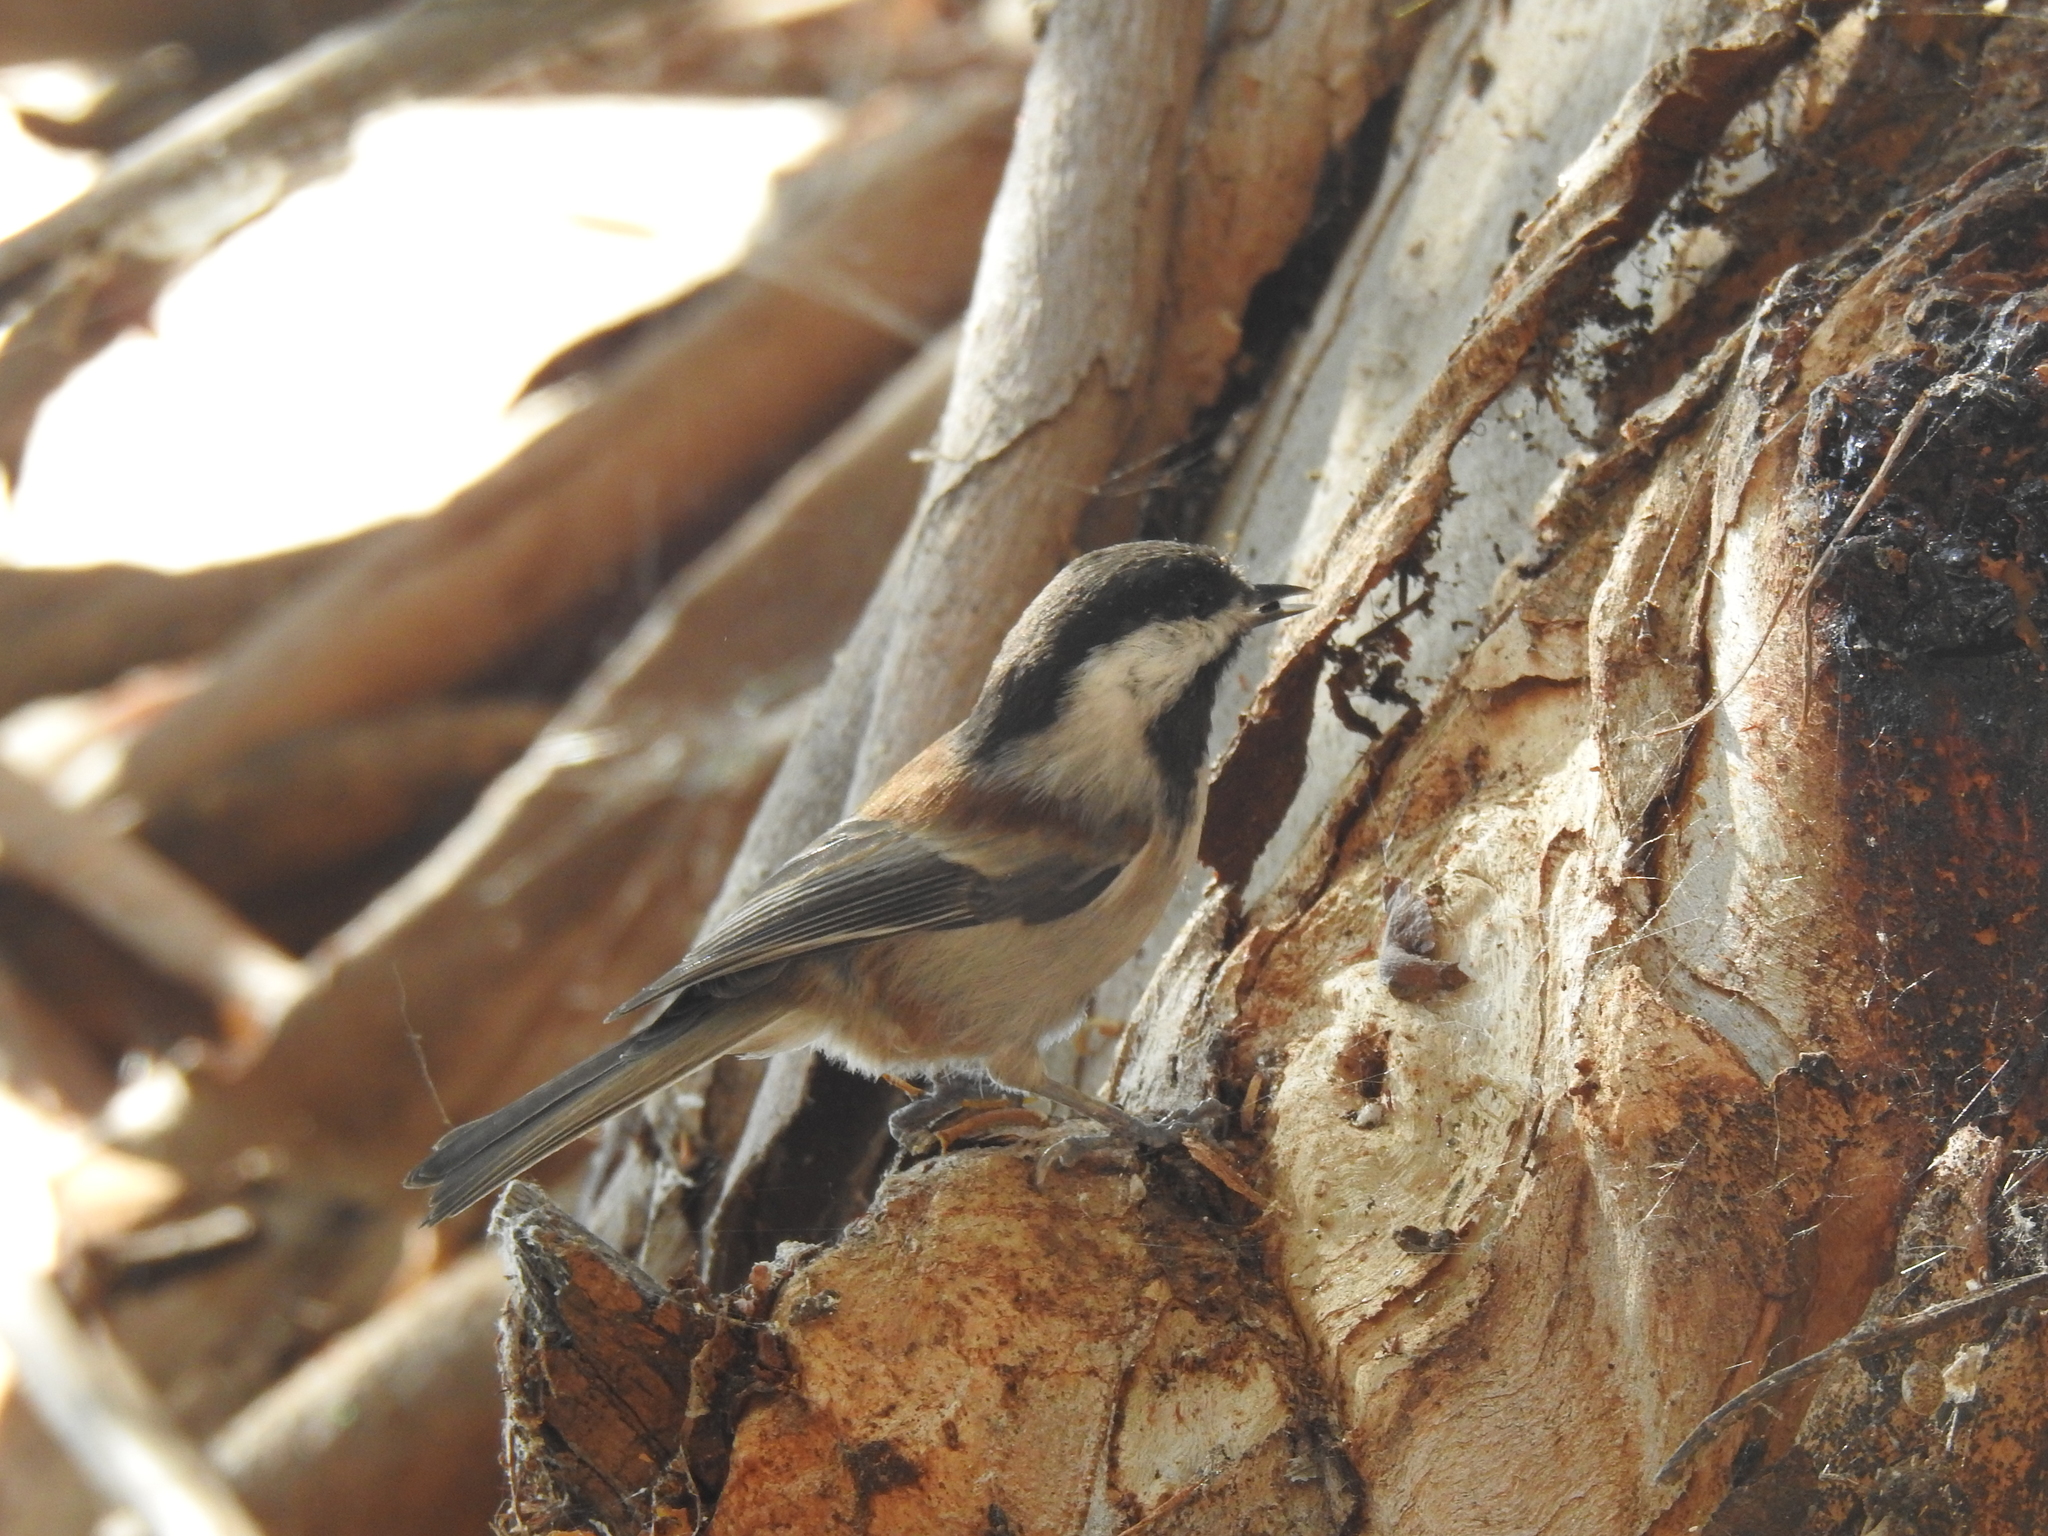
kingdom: Animalia
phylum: Chordata
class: Aves
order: Passeriformes
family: Paridae
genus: Poecile
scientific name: Poecile rufescens
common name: Chestnut-backed chickadee
